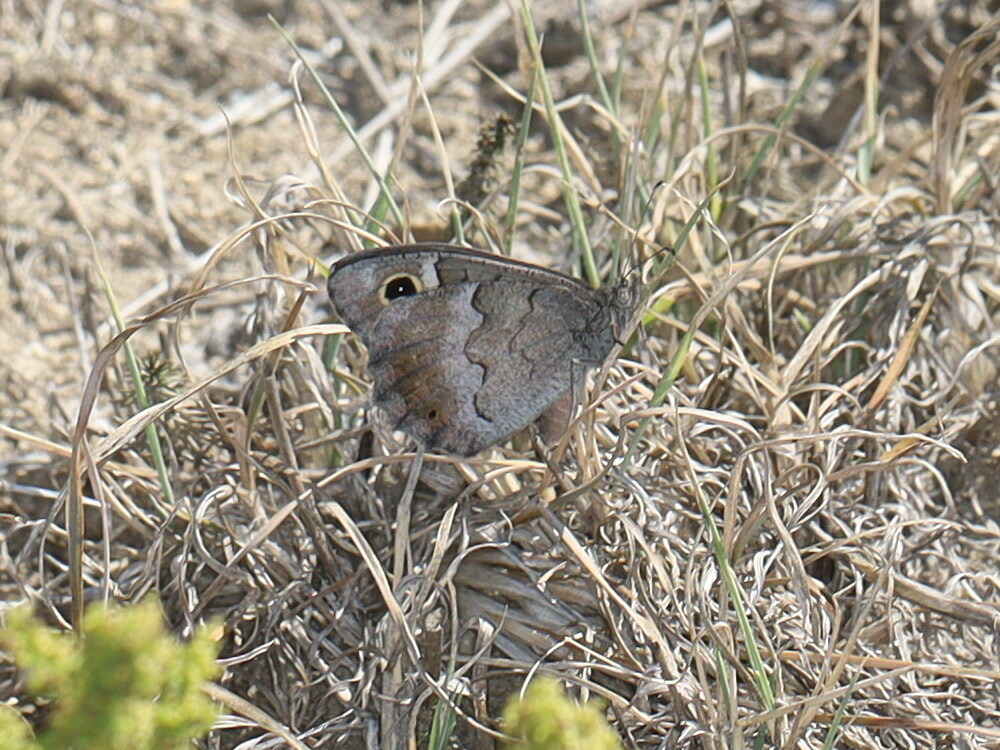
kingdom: Animalia
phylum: Arthropoda
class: Insecta
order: Lepidoptera
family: Nymphalidae
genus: Hipparchia
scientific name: Hipparchia statilinus
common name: Tree grayling
